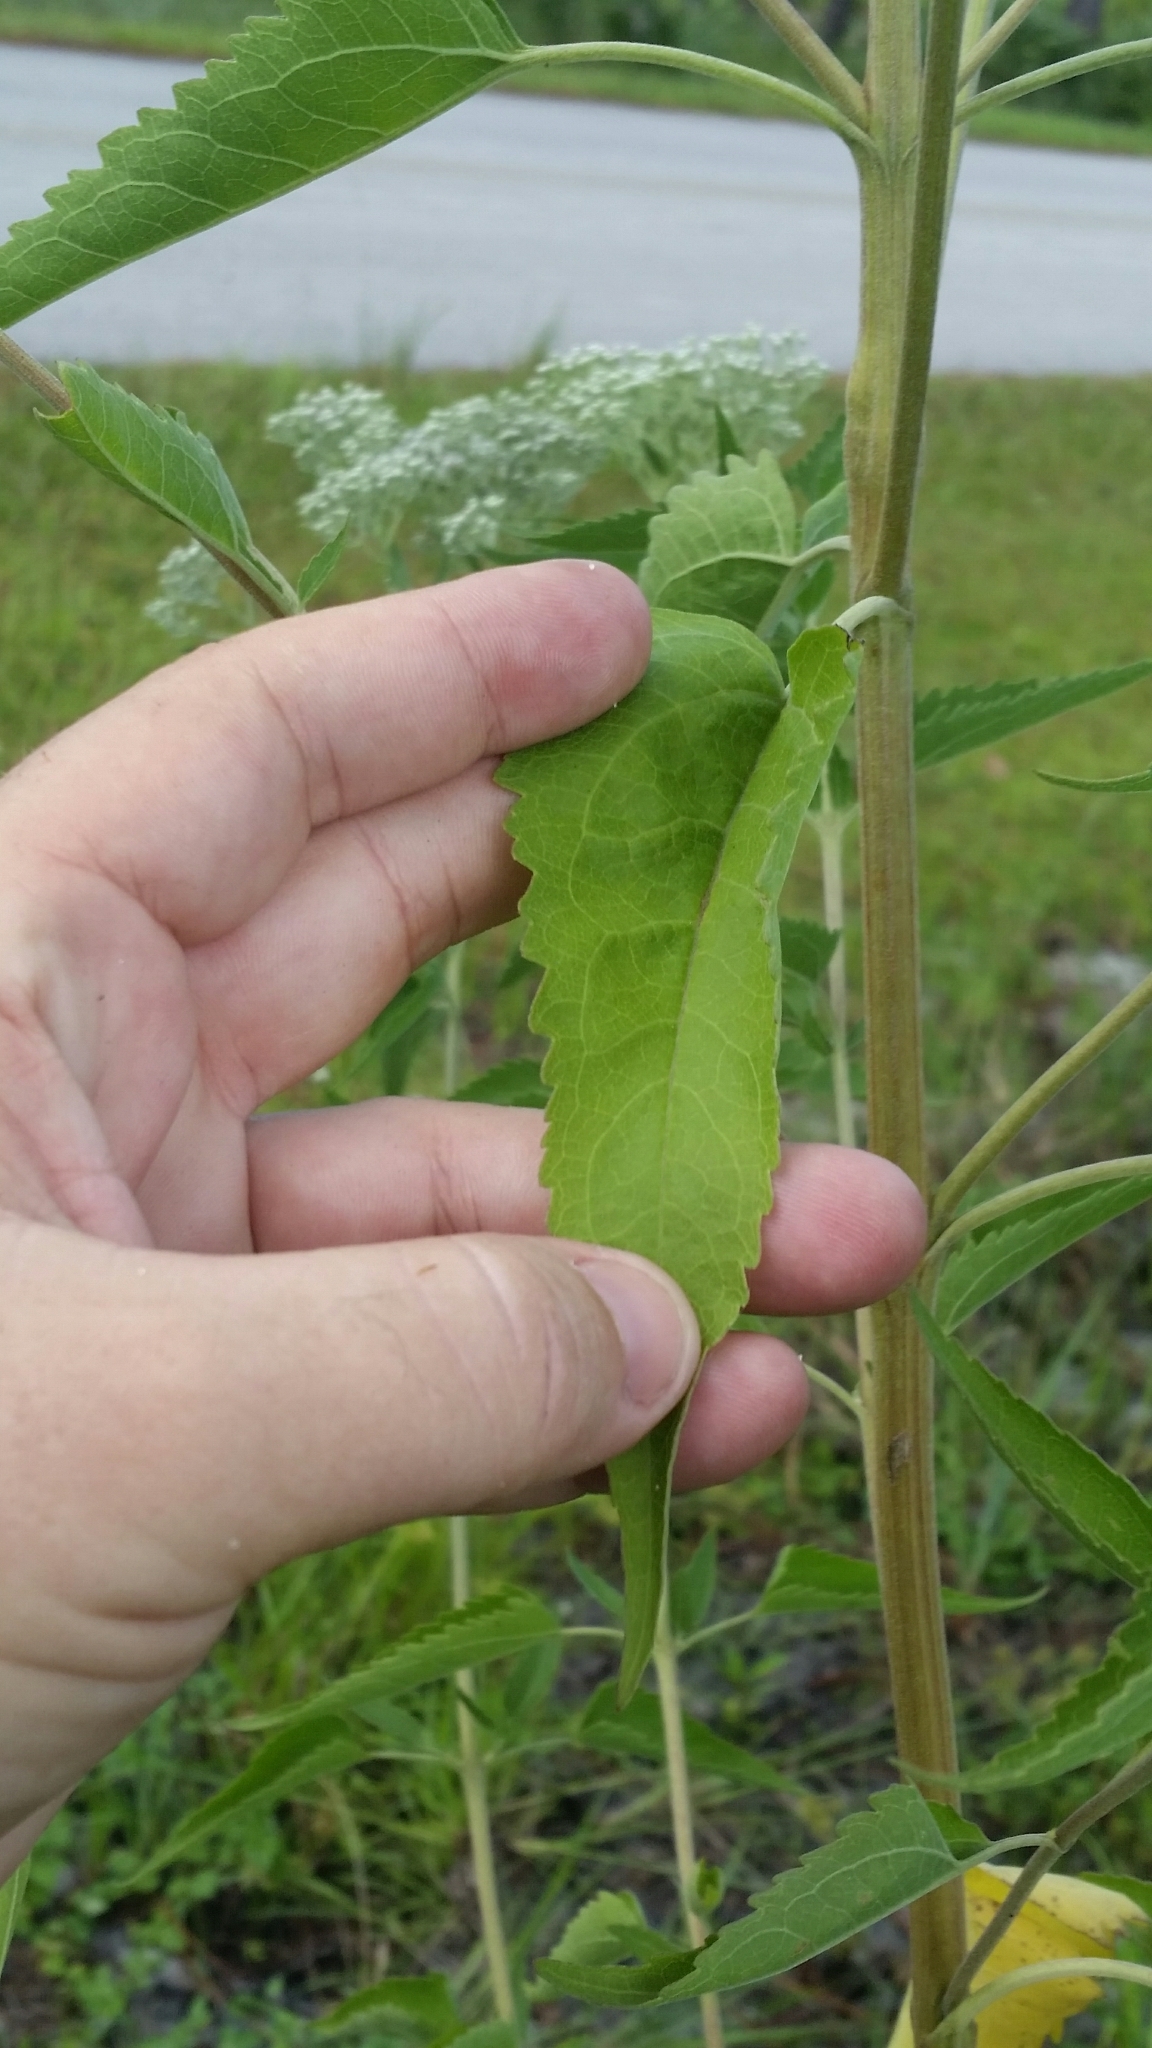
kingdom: Plantae
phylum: Tracheophyta
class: Magnoliopsida
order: Asterales
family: Asteraceae
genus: Eupatorium
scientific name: Eupatorium serotinum
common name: Late boneset
